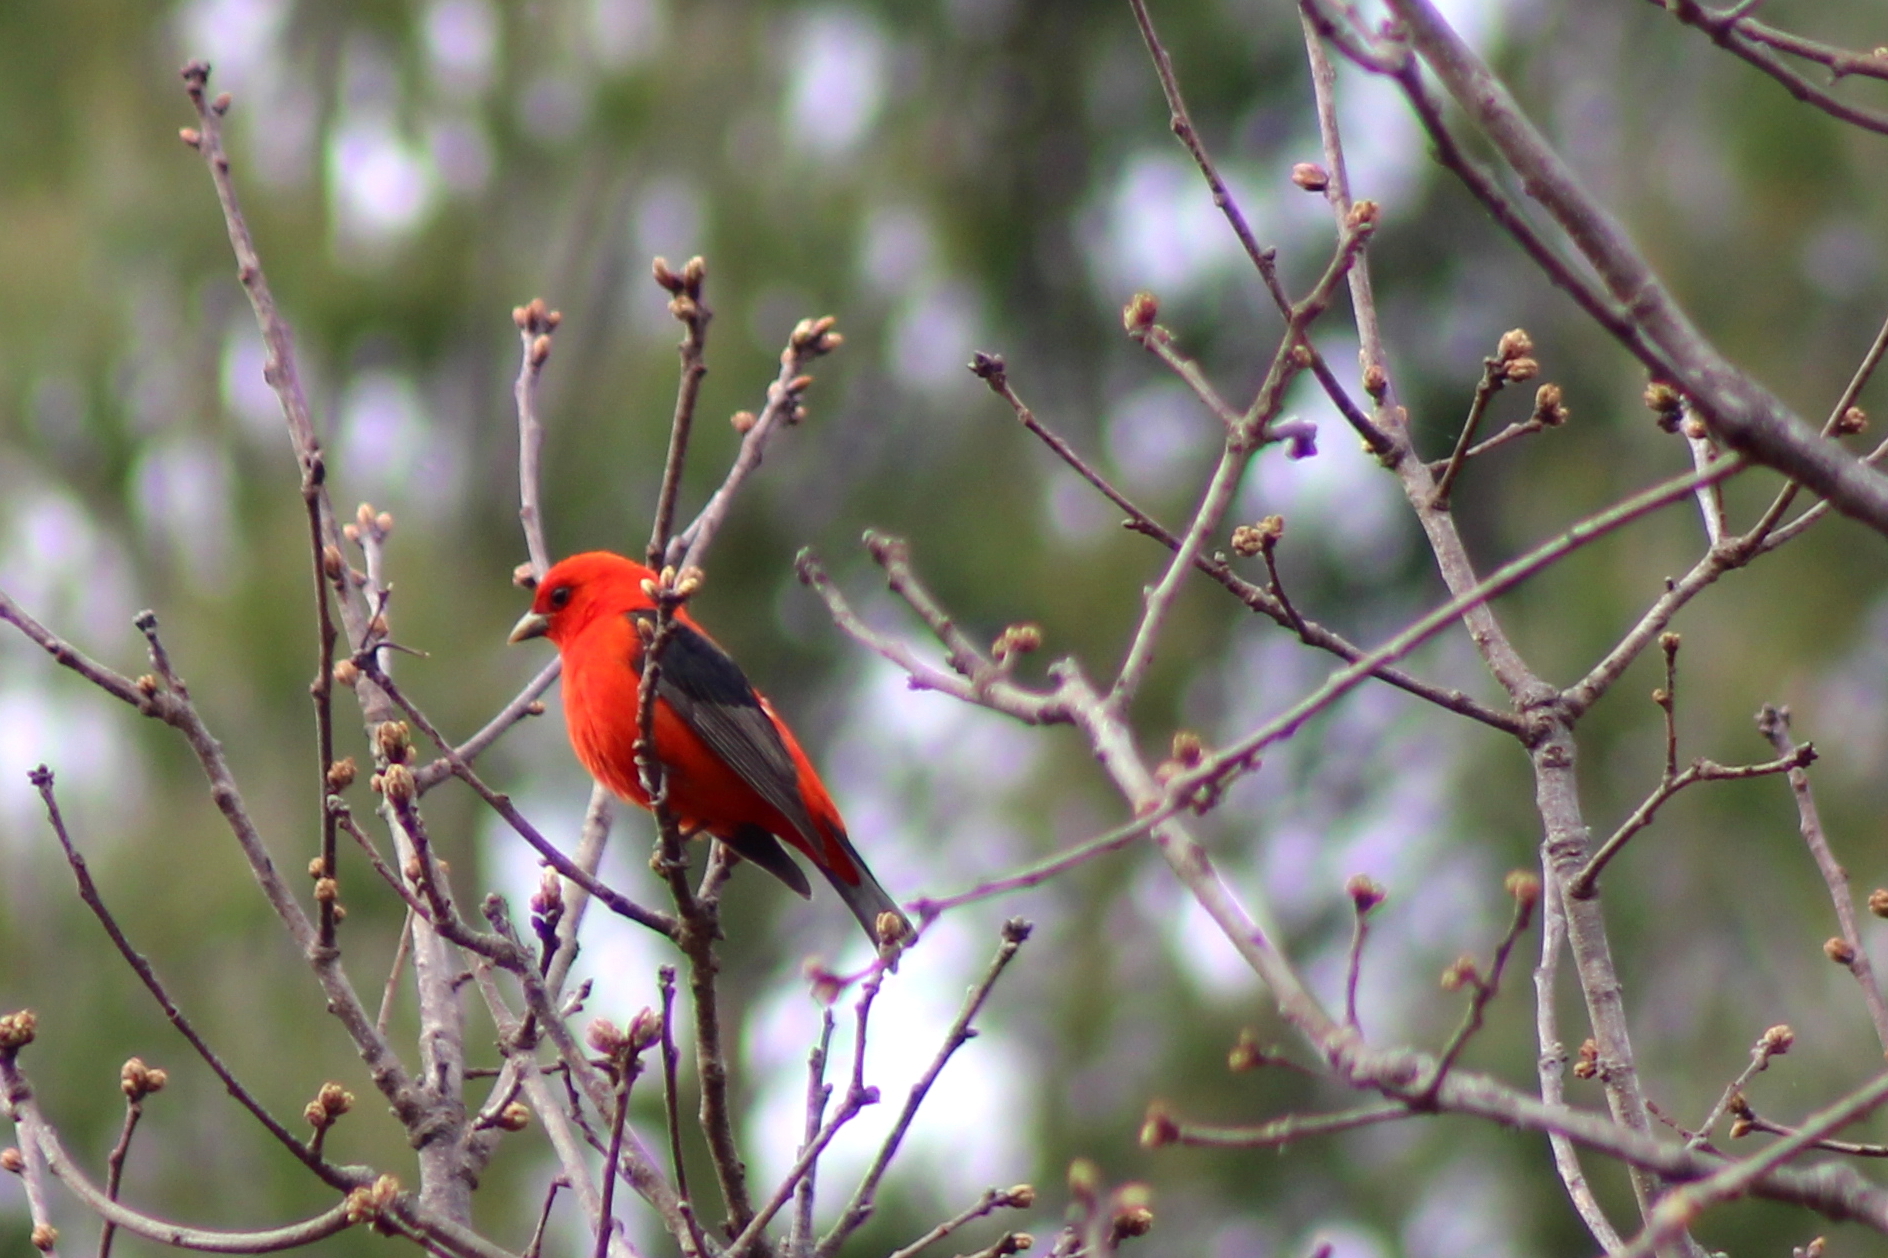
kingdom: Animalia
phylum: Chordata
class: Aves
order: Passeriformes
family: Cardinalidae
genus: Piranga
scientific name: Piranga olivacea
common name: Scarlet tanager
